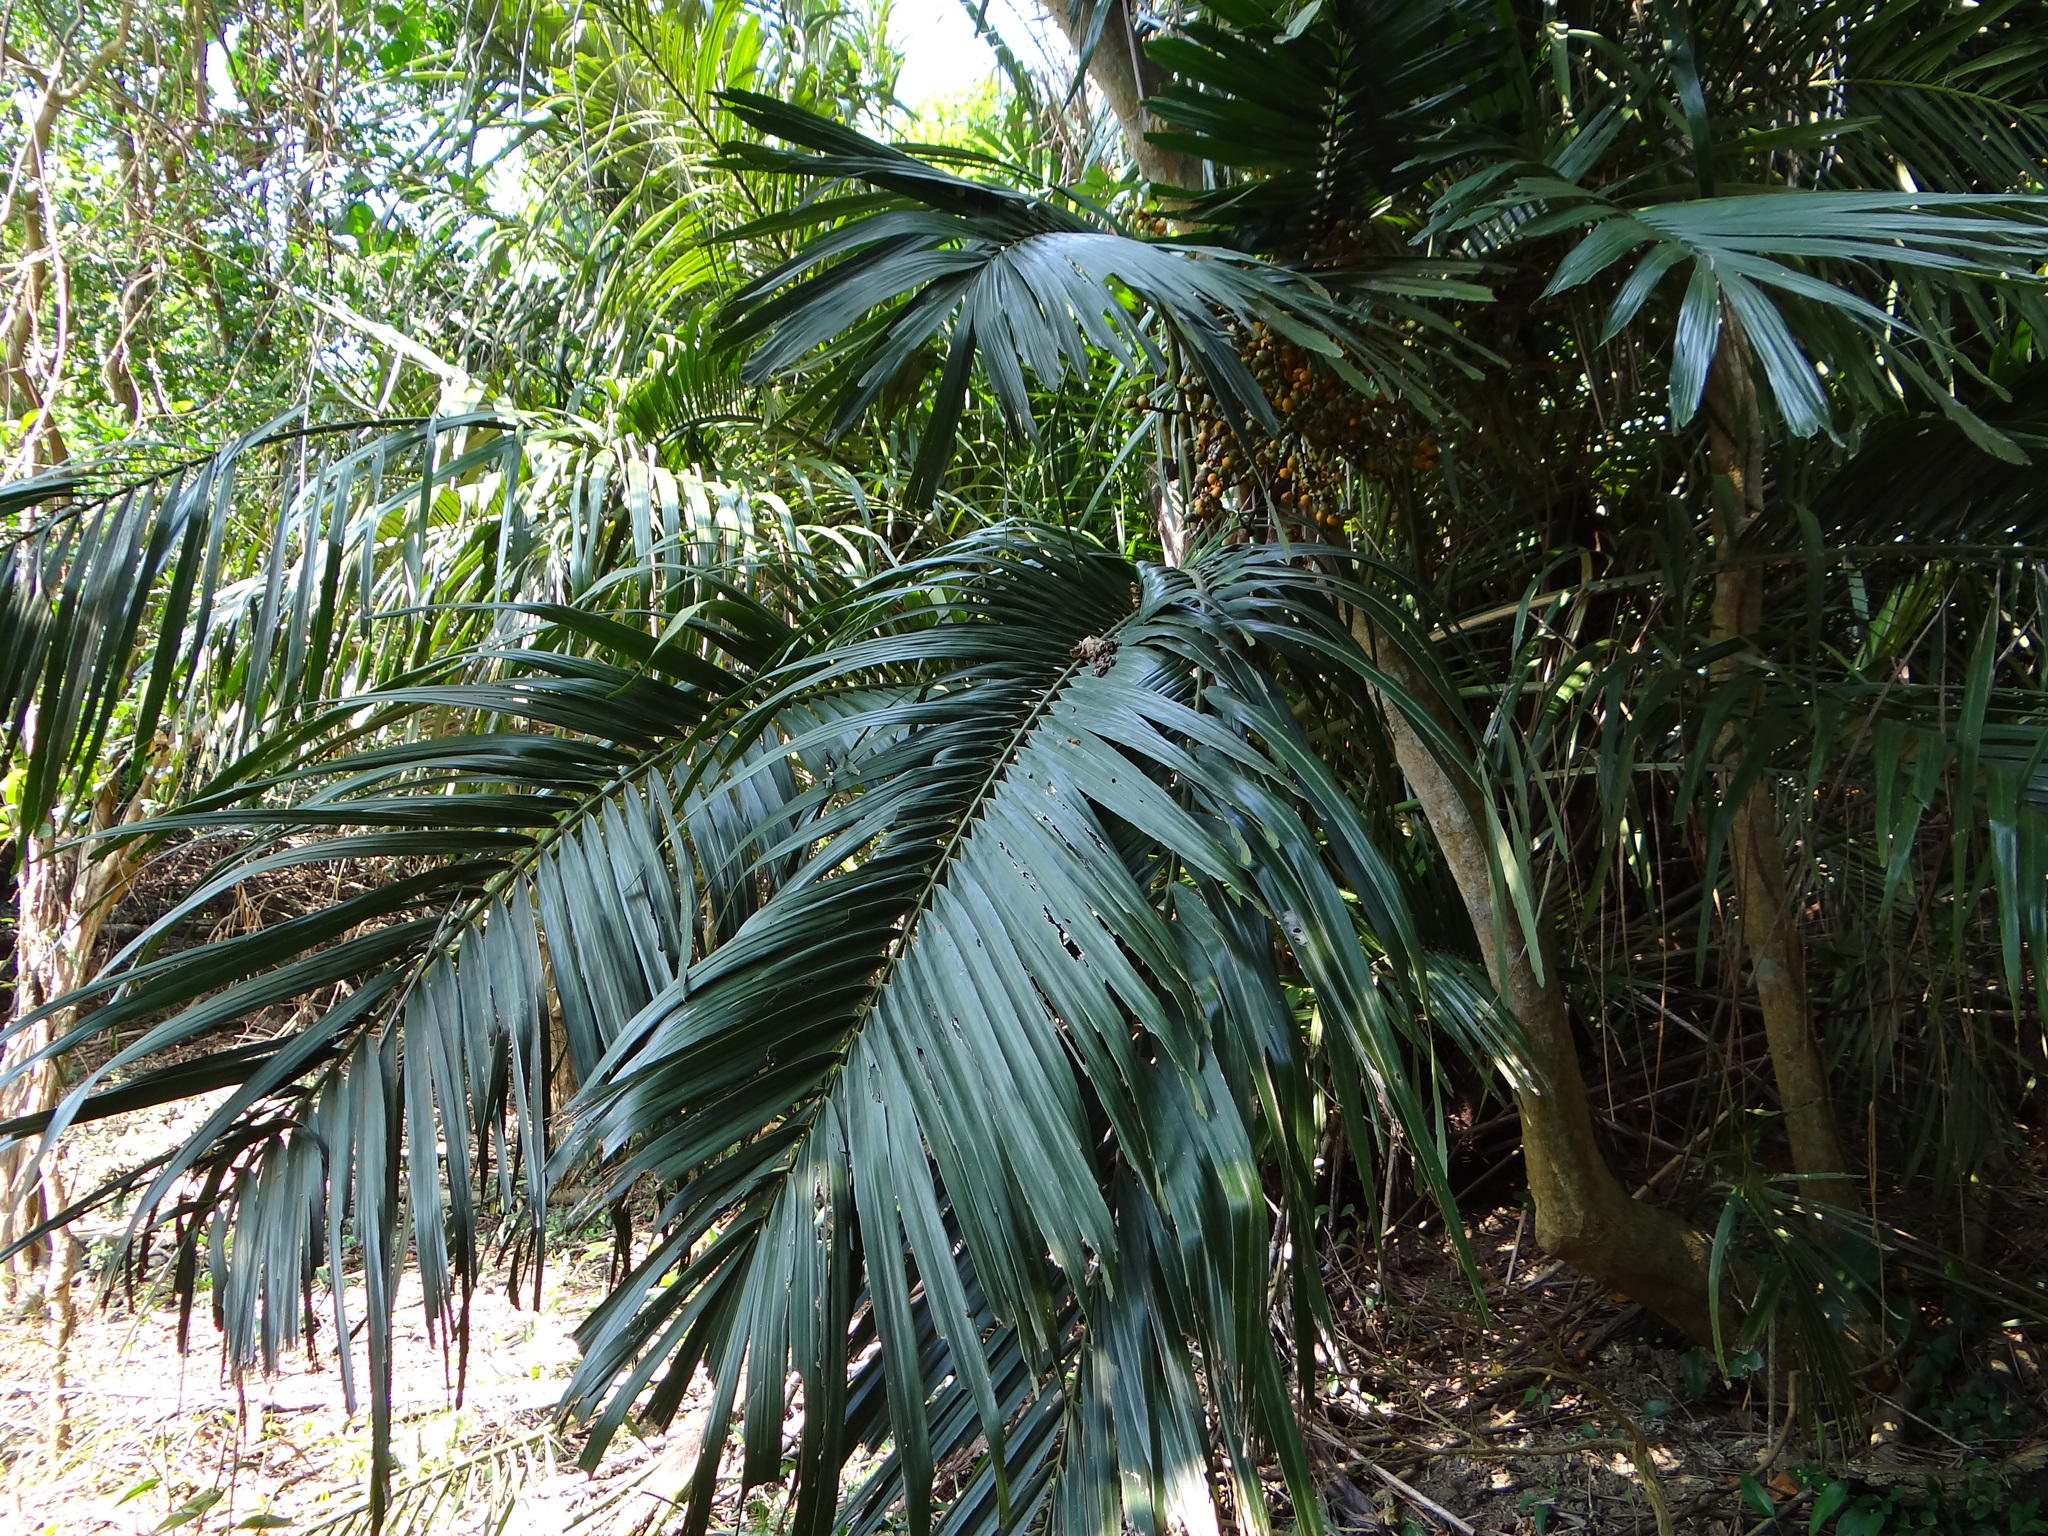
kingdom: Plantae
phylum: Tracheophyta
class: Liliopsida
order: Arecales
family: Arecaceae
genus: Arenga
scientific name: Arenga engleri
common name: Formosan sugar palm
